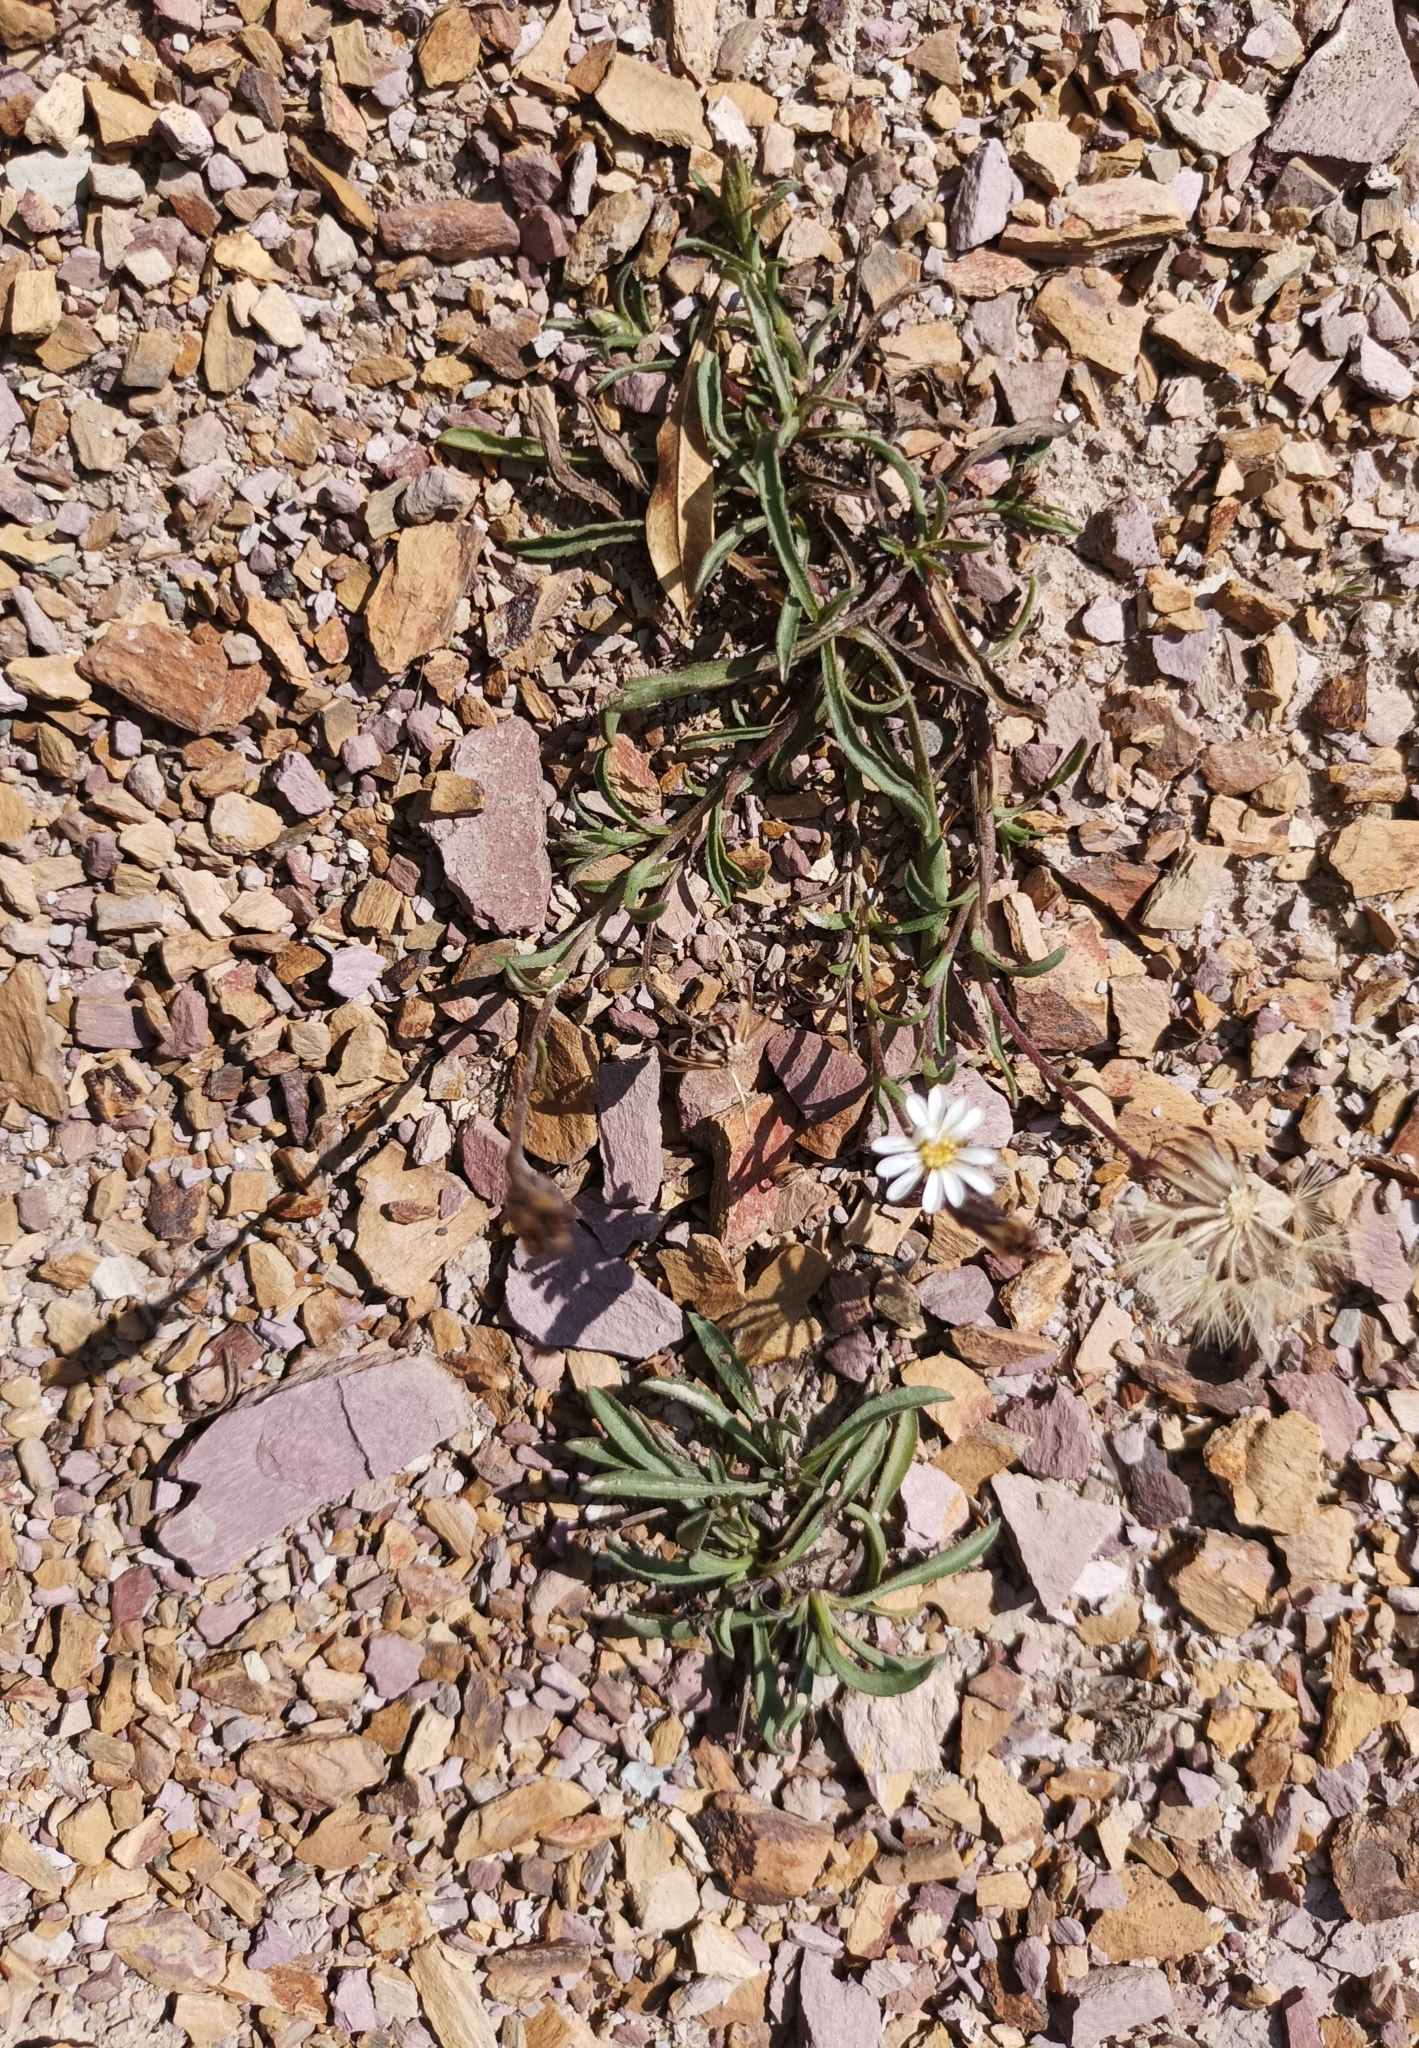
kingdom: Plantae
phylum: Tracheophyta
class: Magnoliopsida
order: Asterales
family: Asteraceae
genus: Noticastrum
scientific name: Noticastrum marginatum
